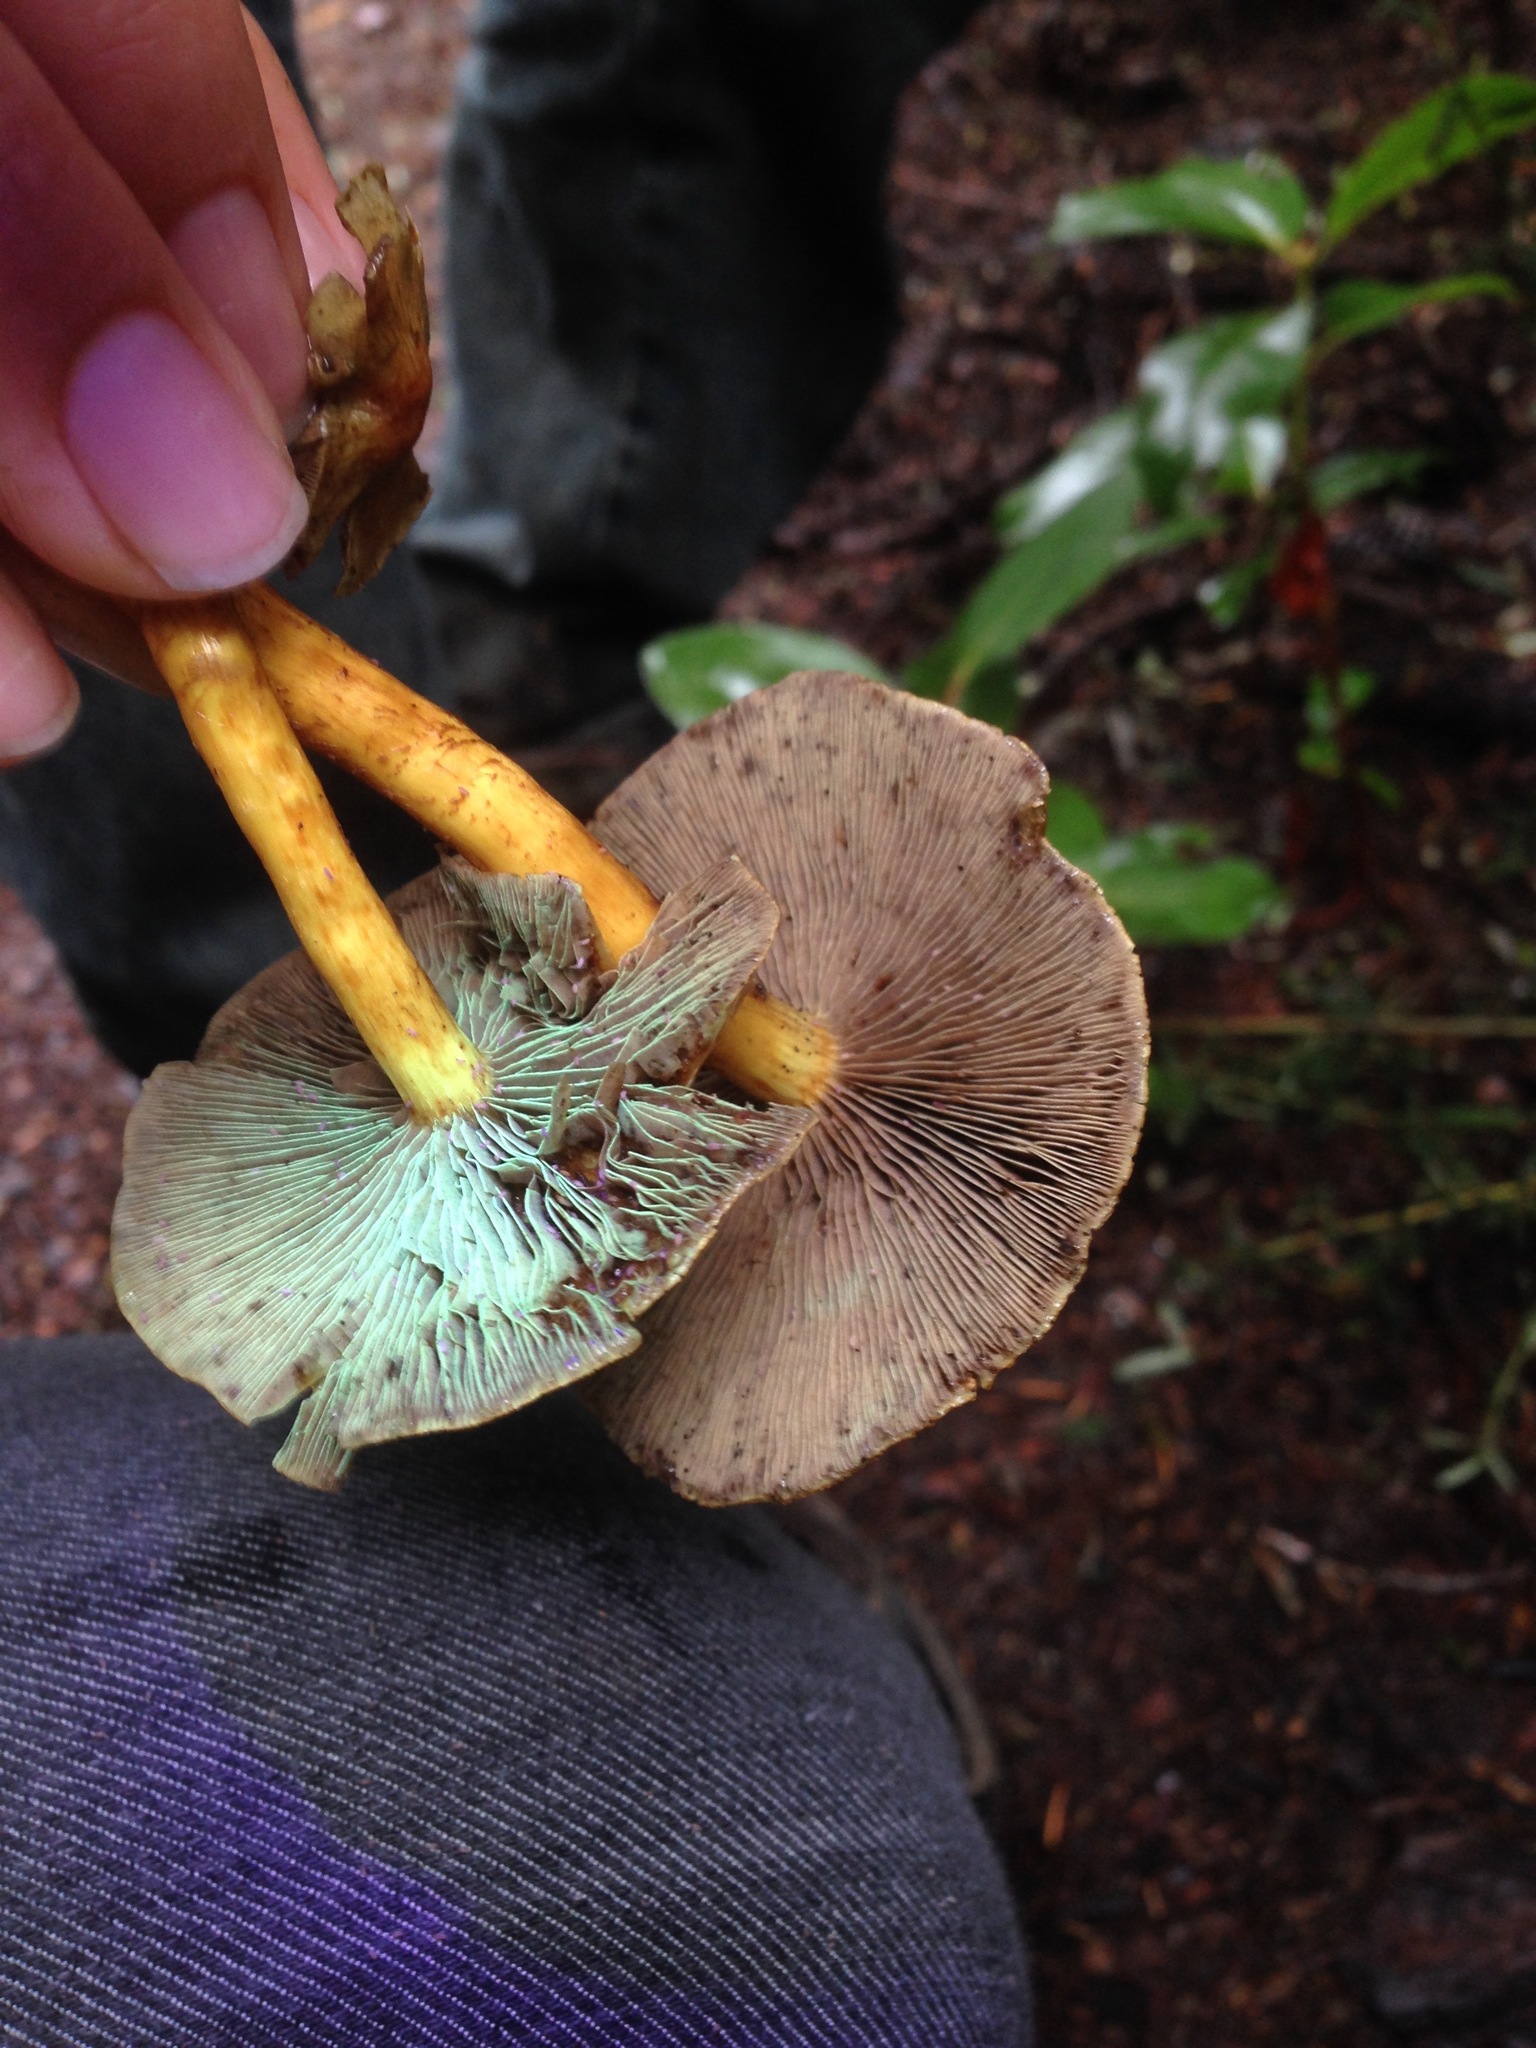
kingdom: Fungi
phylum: Basidiomycota
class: Agaricomycetes
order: Agaricales
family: Strophariaceae
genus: Hypholoma
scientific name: Hypholoma fasciculare
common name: Sulphur tuft
